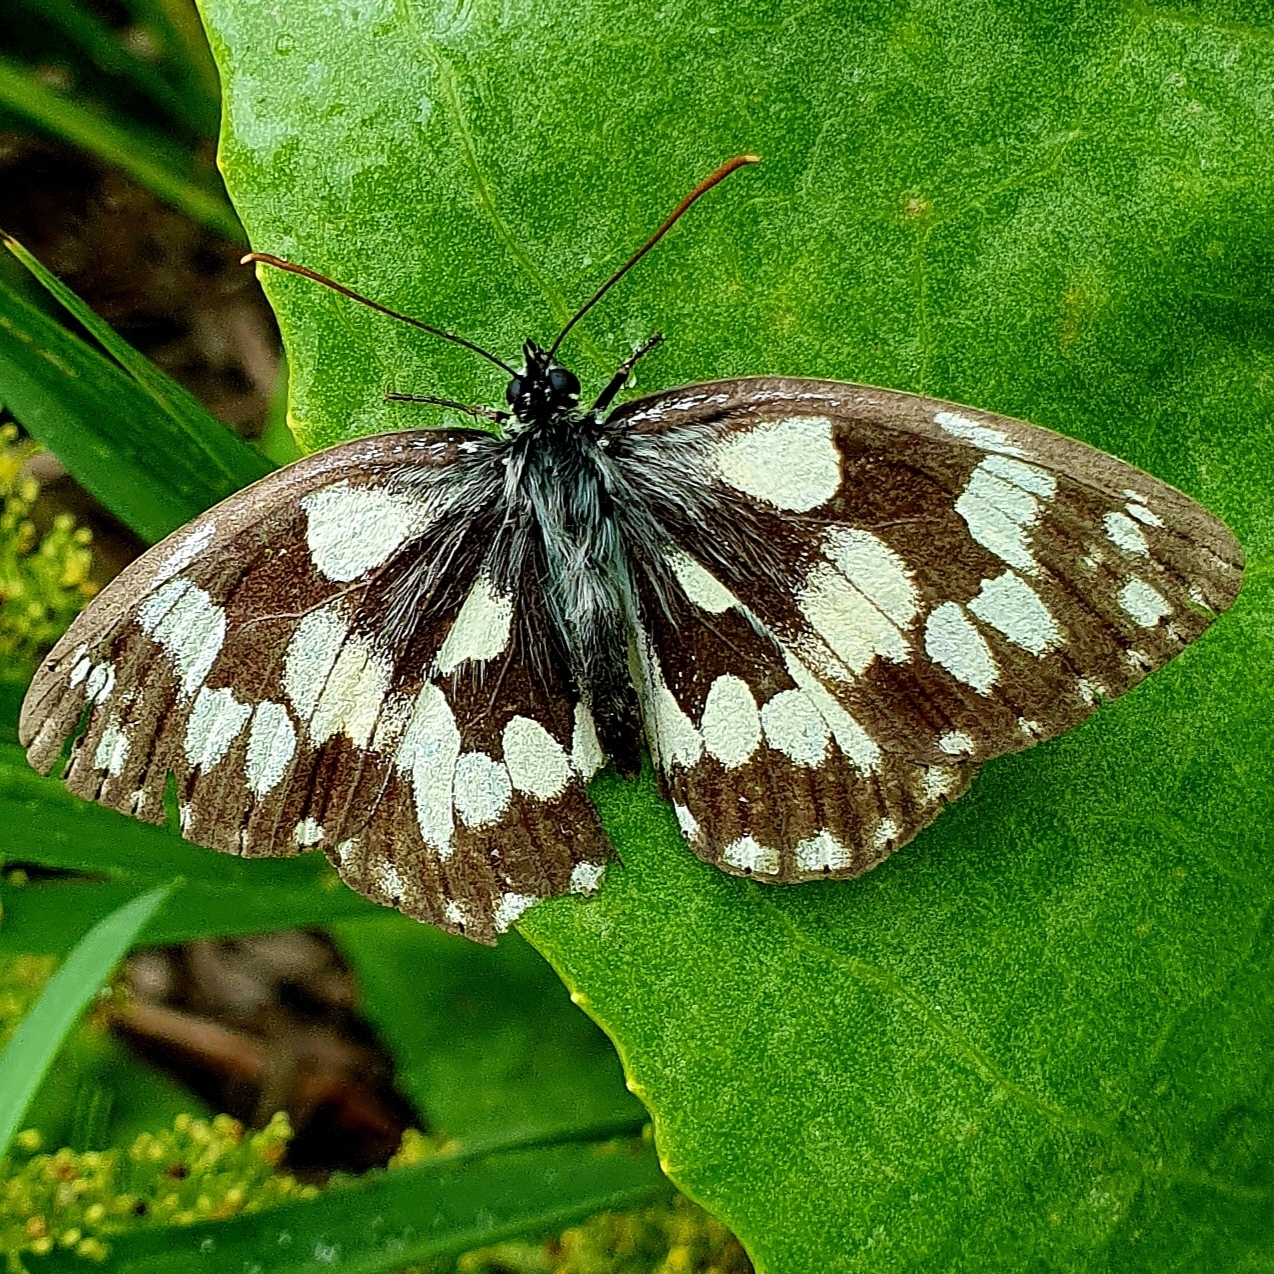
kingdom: Animalia
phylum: Arthropoda
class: Insecta
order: Lepidoptera
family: Nymphalidae
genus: Melanargia
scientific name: Melanargia galathea
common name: Marbled white
